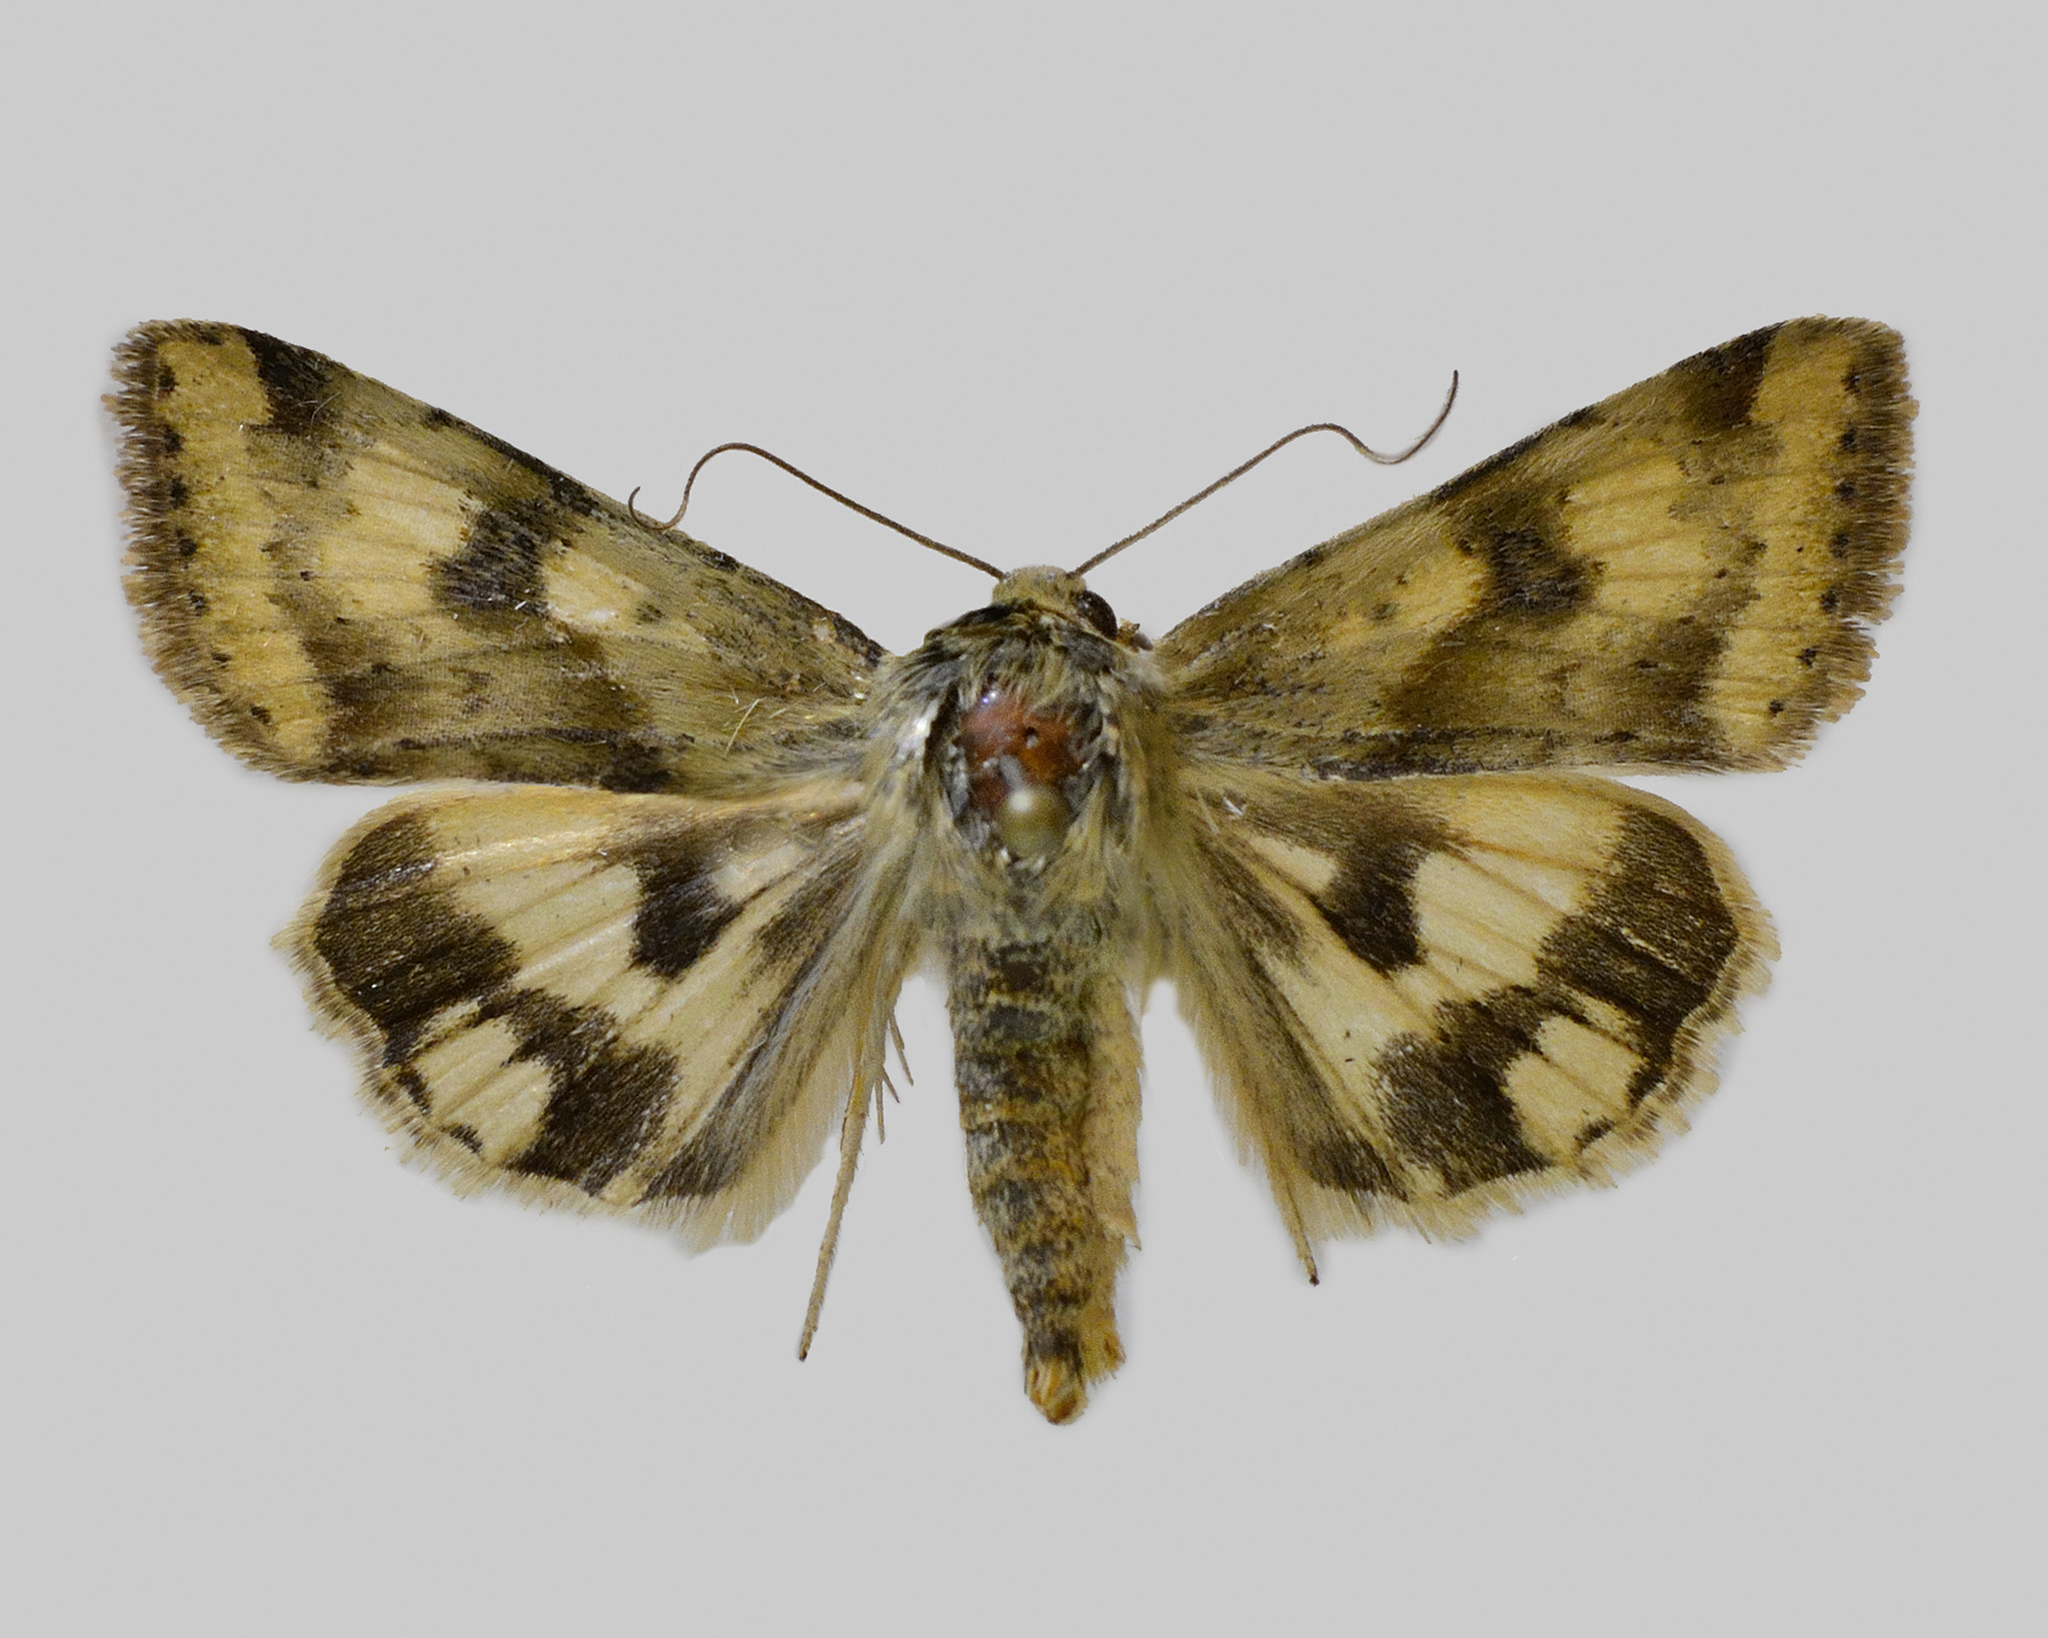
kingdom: Animalia
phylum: Arthropoda
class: Insecta
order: Lepidoptera
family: Noctuidae
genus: Heliothis
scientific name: Heliothis adaucta
